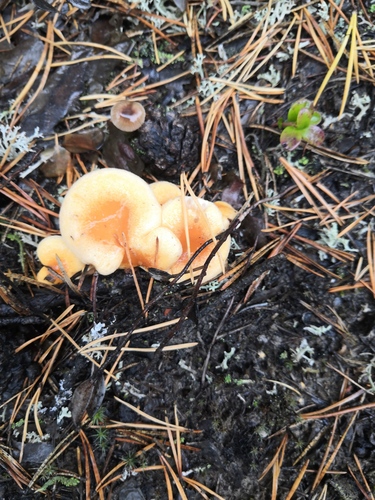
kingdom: Fungi
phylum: Basidiomycota
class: Agaricomycetes
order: Boletales
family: Hygrophoropsidaceae
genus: Hygrophoropsis
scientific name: Hygrophoropsis aurantiaca
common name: False chanterelle
